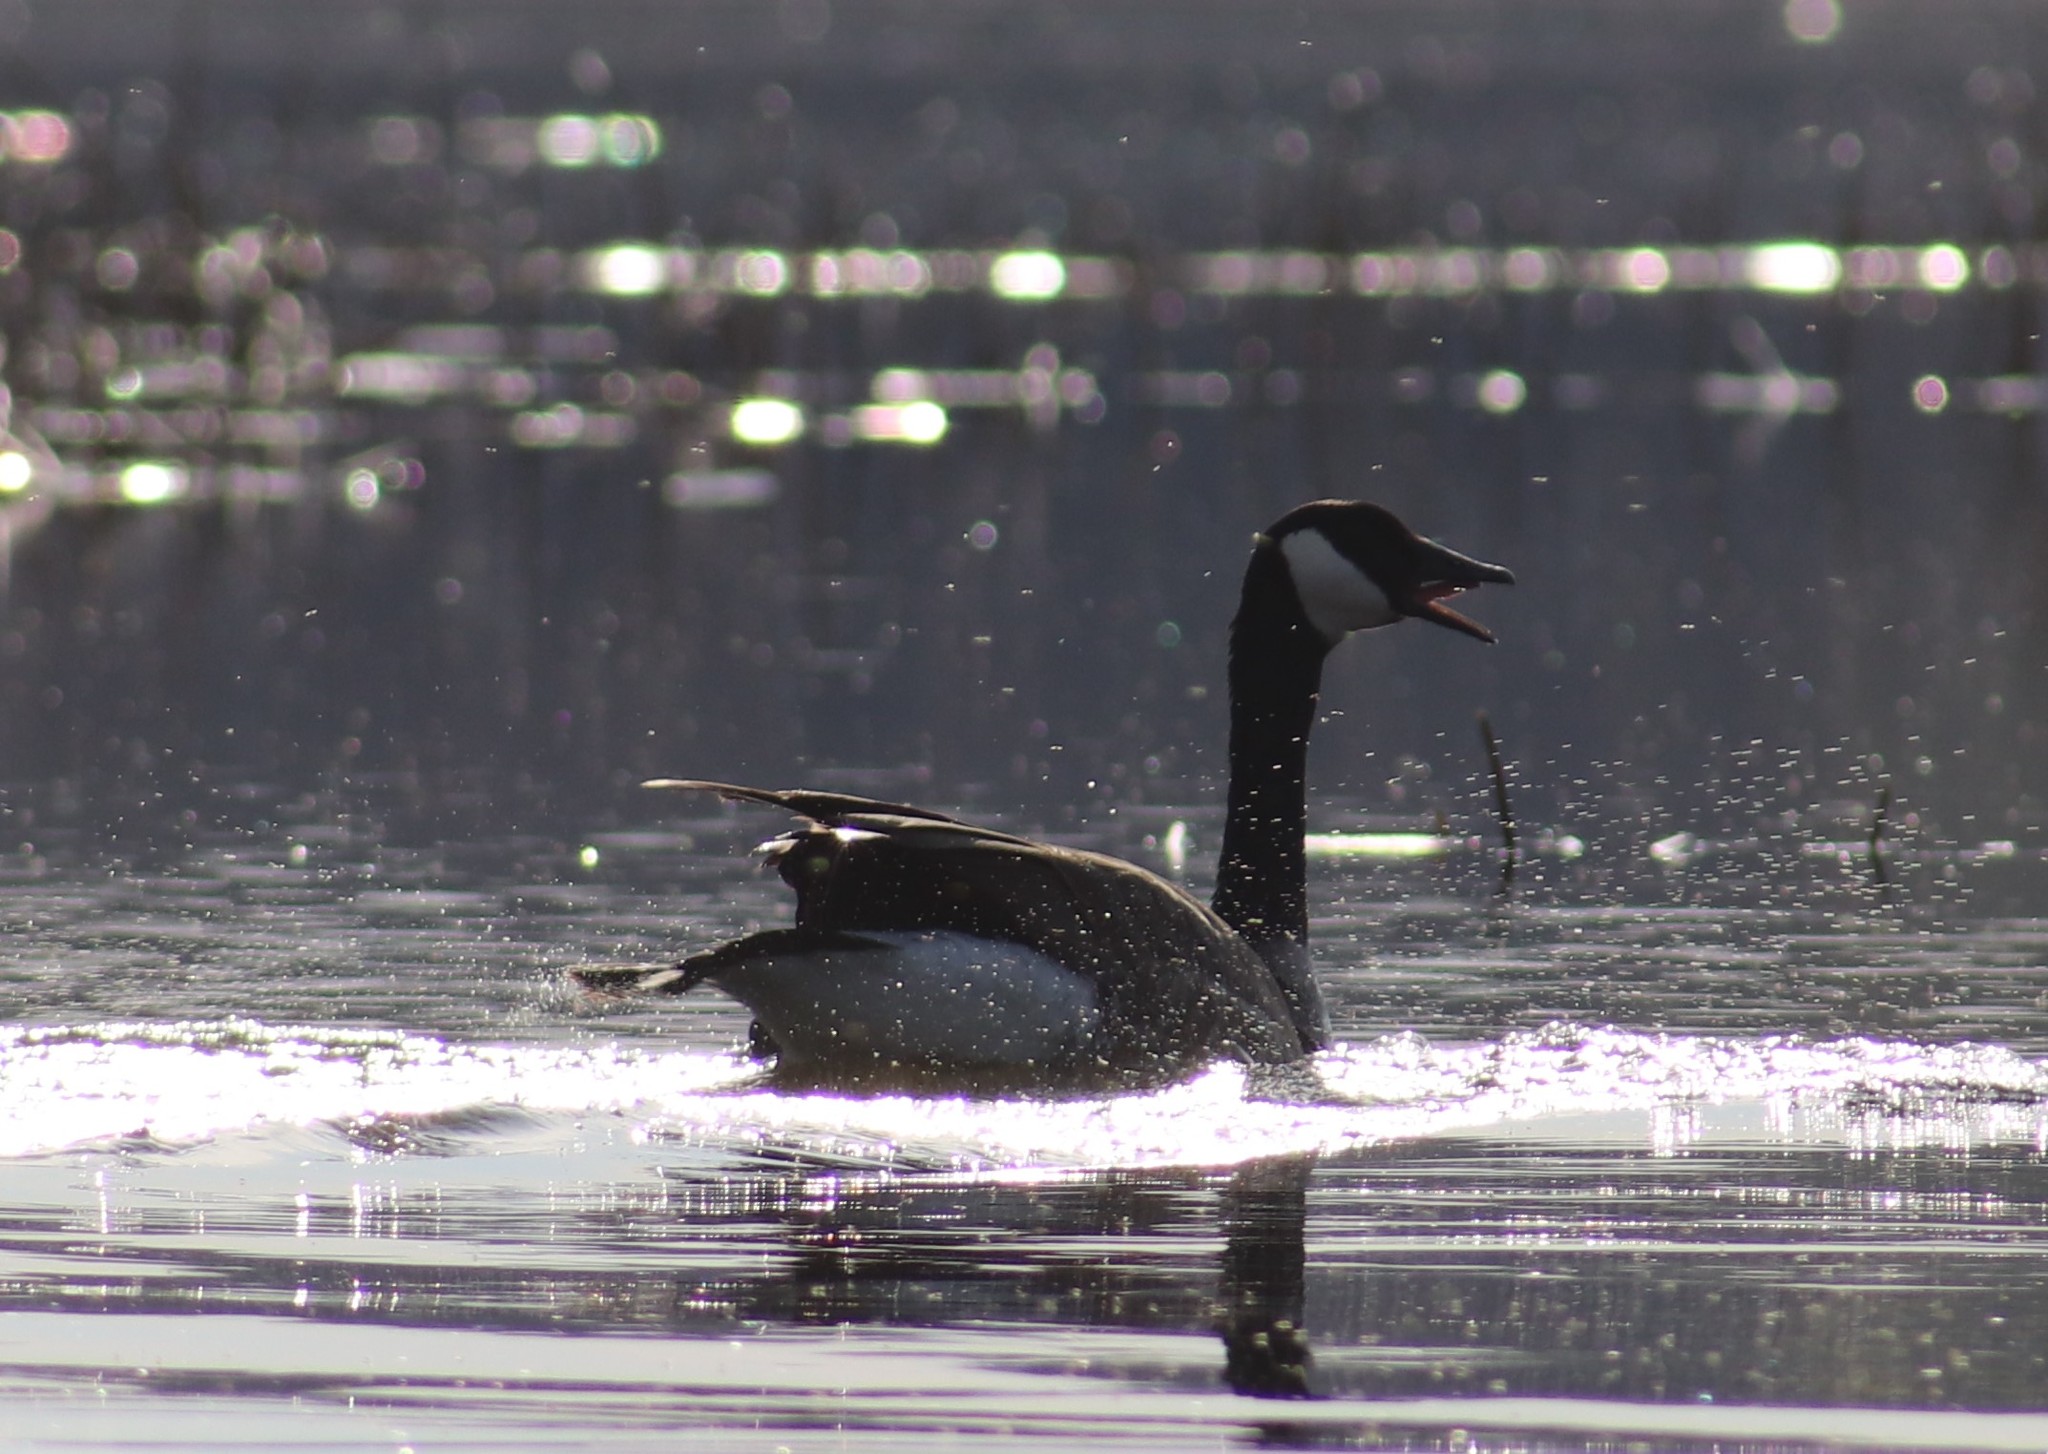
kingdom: Animalia
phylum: Chordata
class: Aves
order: Anseriformes
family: Anatidae
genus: Branta
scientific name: Branta canadensis
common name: Canada goose
